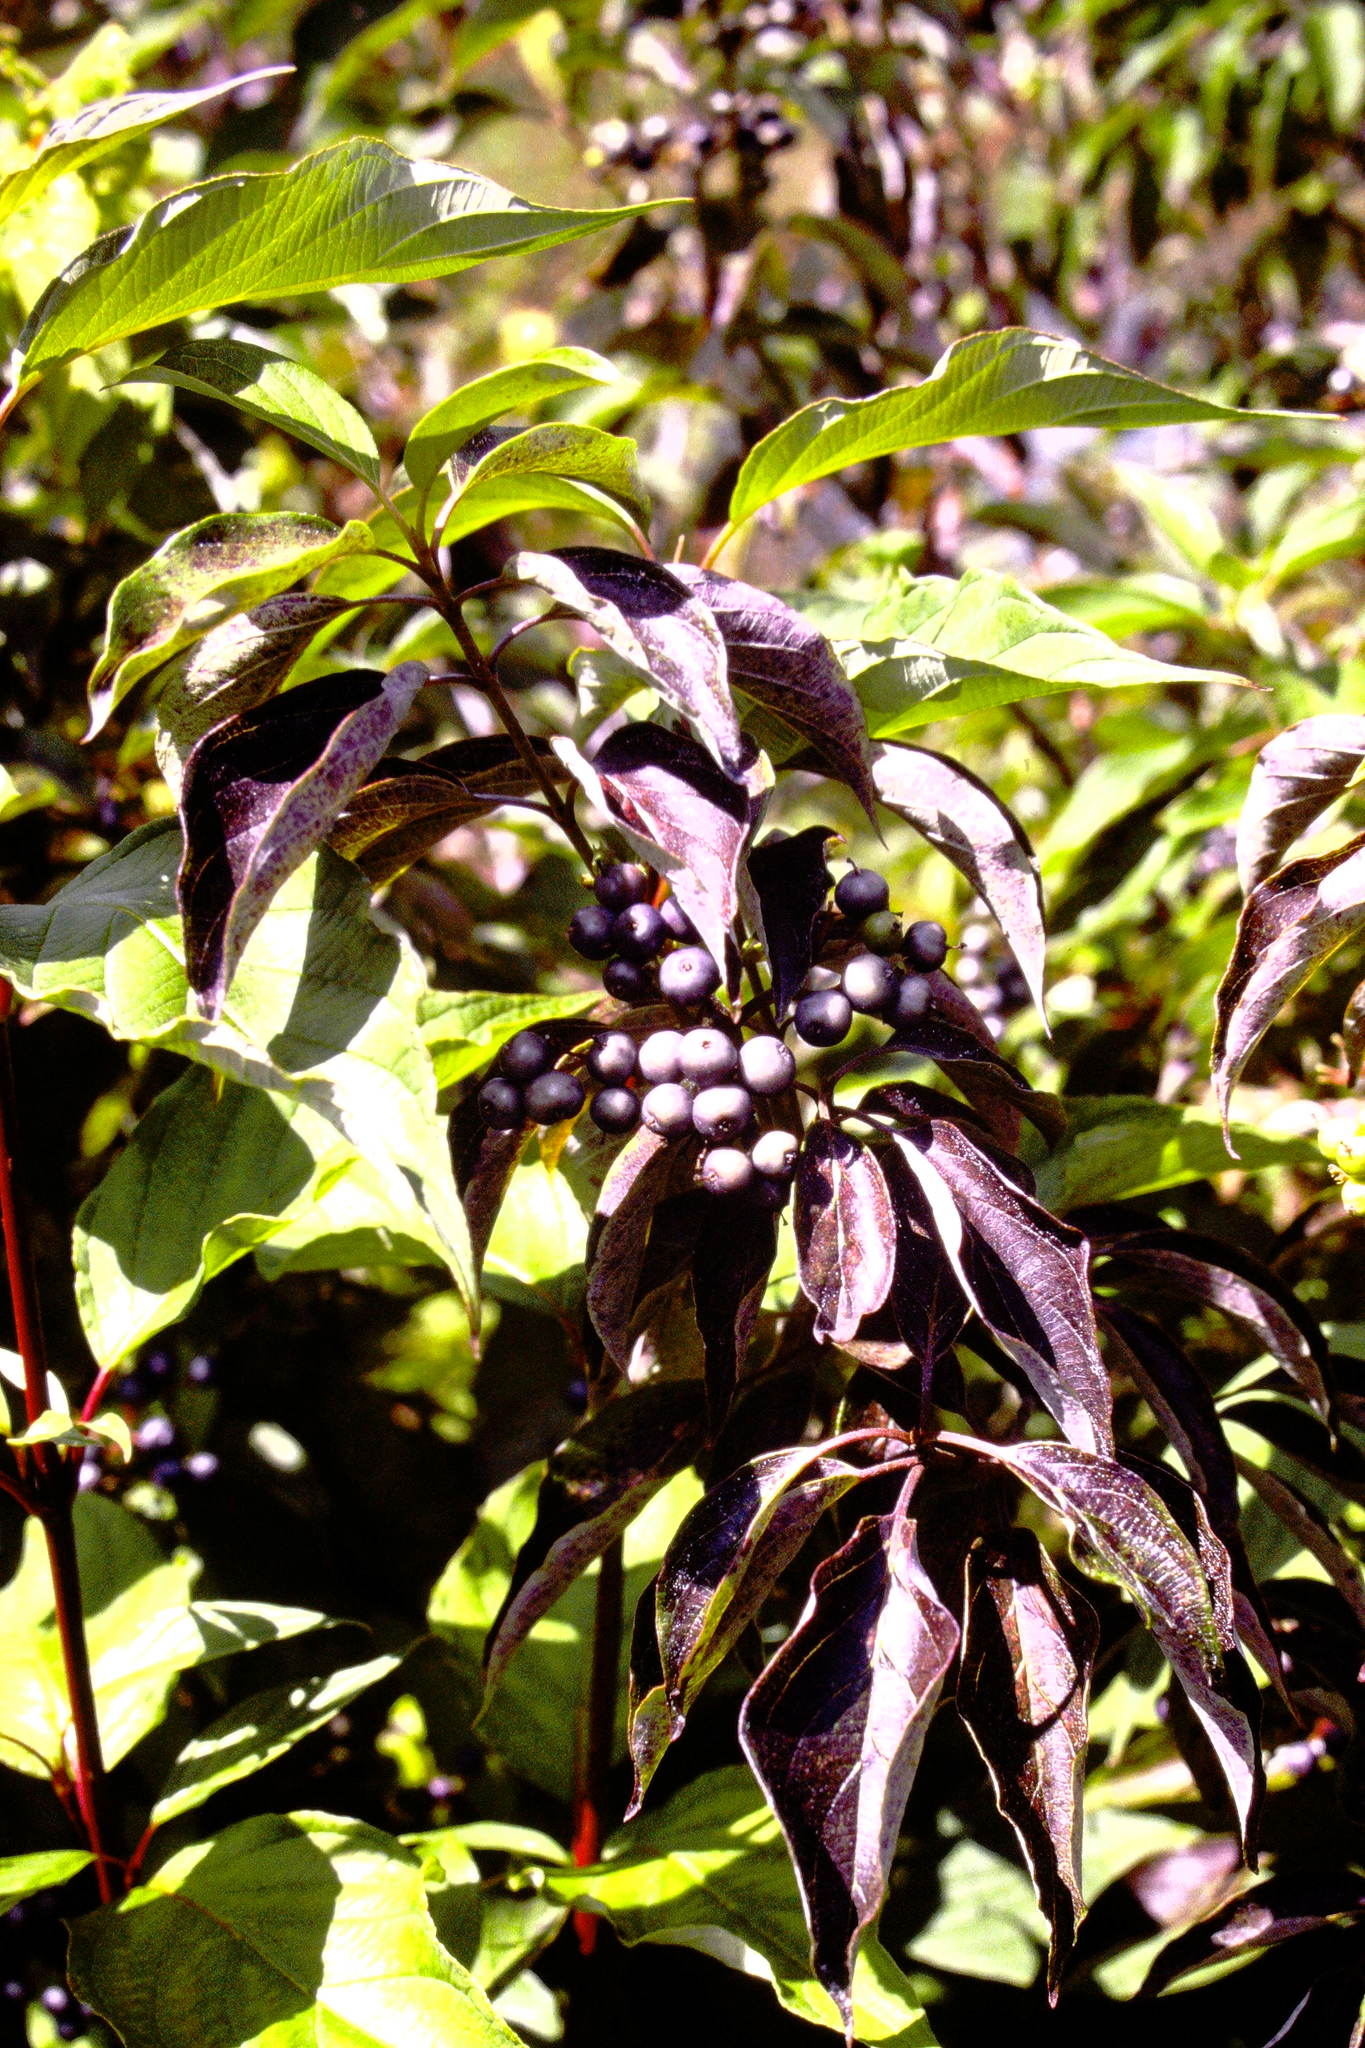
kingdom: Plantae
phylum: Tracheophyta
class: Magnoliopsida
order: Cornales
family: Cornaceae
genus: Cornus
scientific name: Cornus amomum
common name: Silky dogwood
